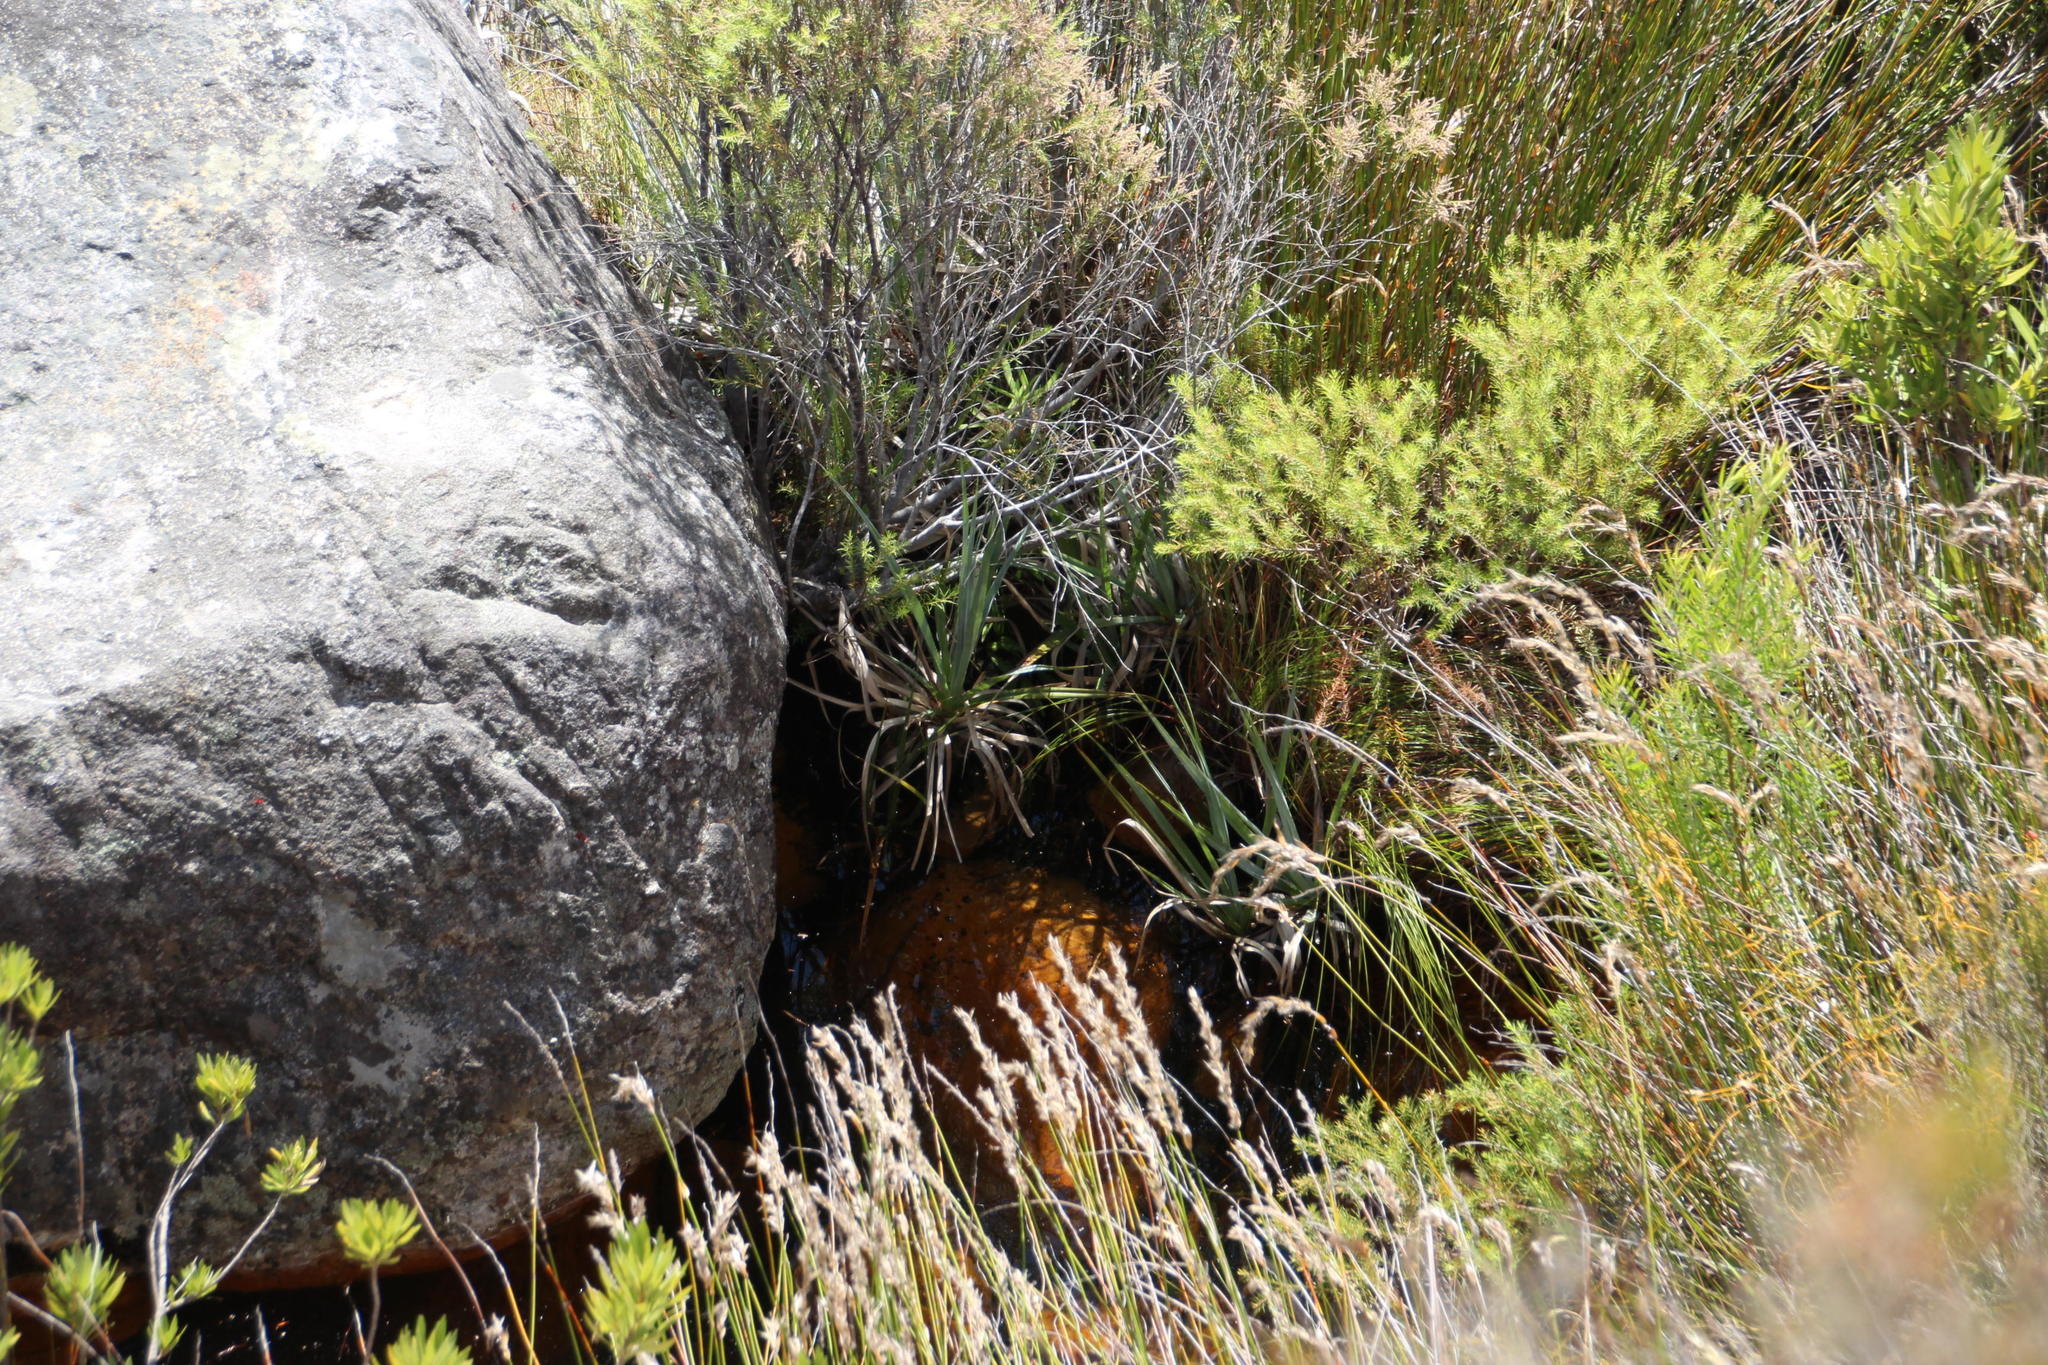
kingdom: Plantae
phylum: Tracheophyta
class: Liliopsida
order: Poales
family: Thurniaceae
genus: Prionium
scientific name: Prionium serratum
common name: Palmiet
